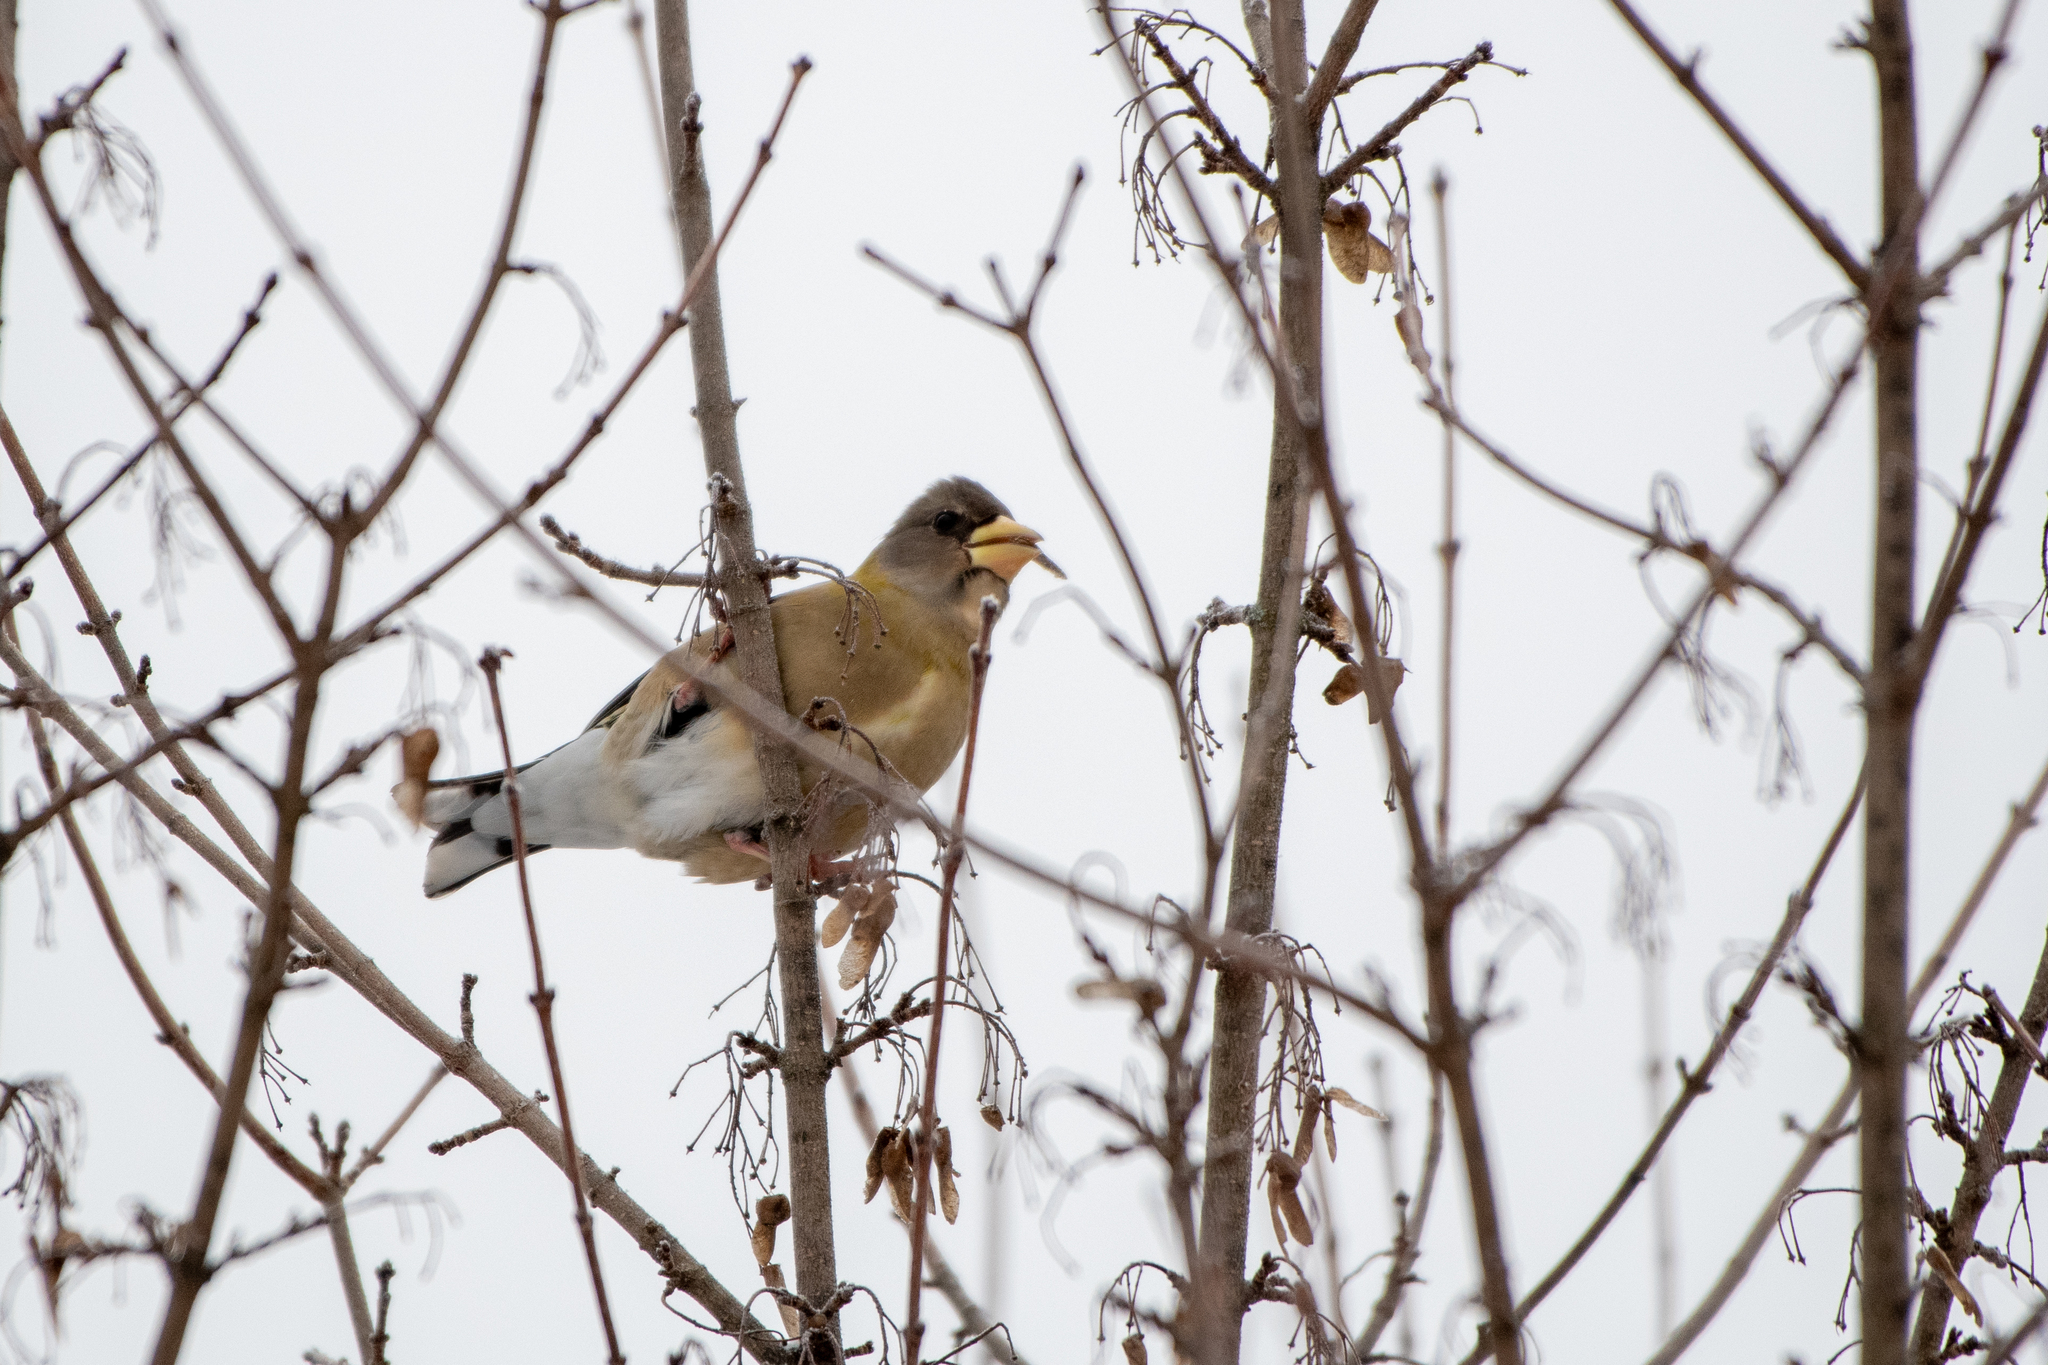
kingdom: Animalia
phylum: Chordata
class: Aves
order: Passeriformes
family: Fringillidae
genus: Hesperiphona
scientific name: Hesperiphona vespertina
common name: Evening grosbeak
